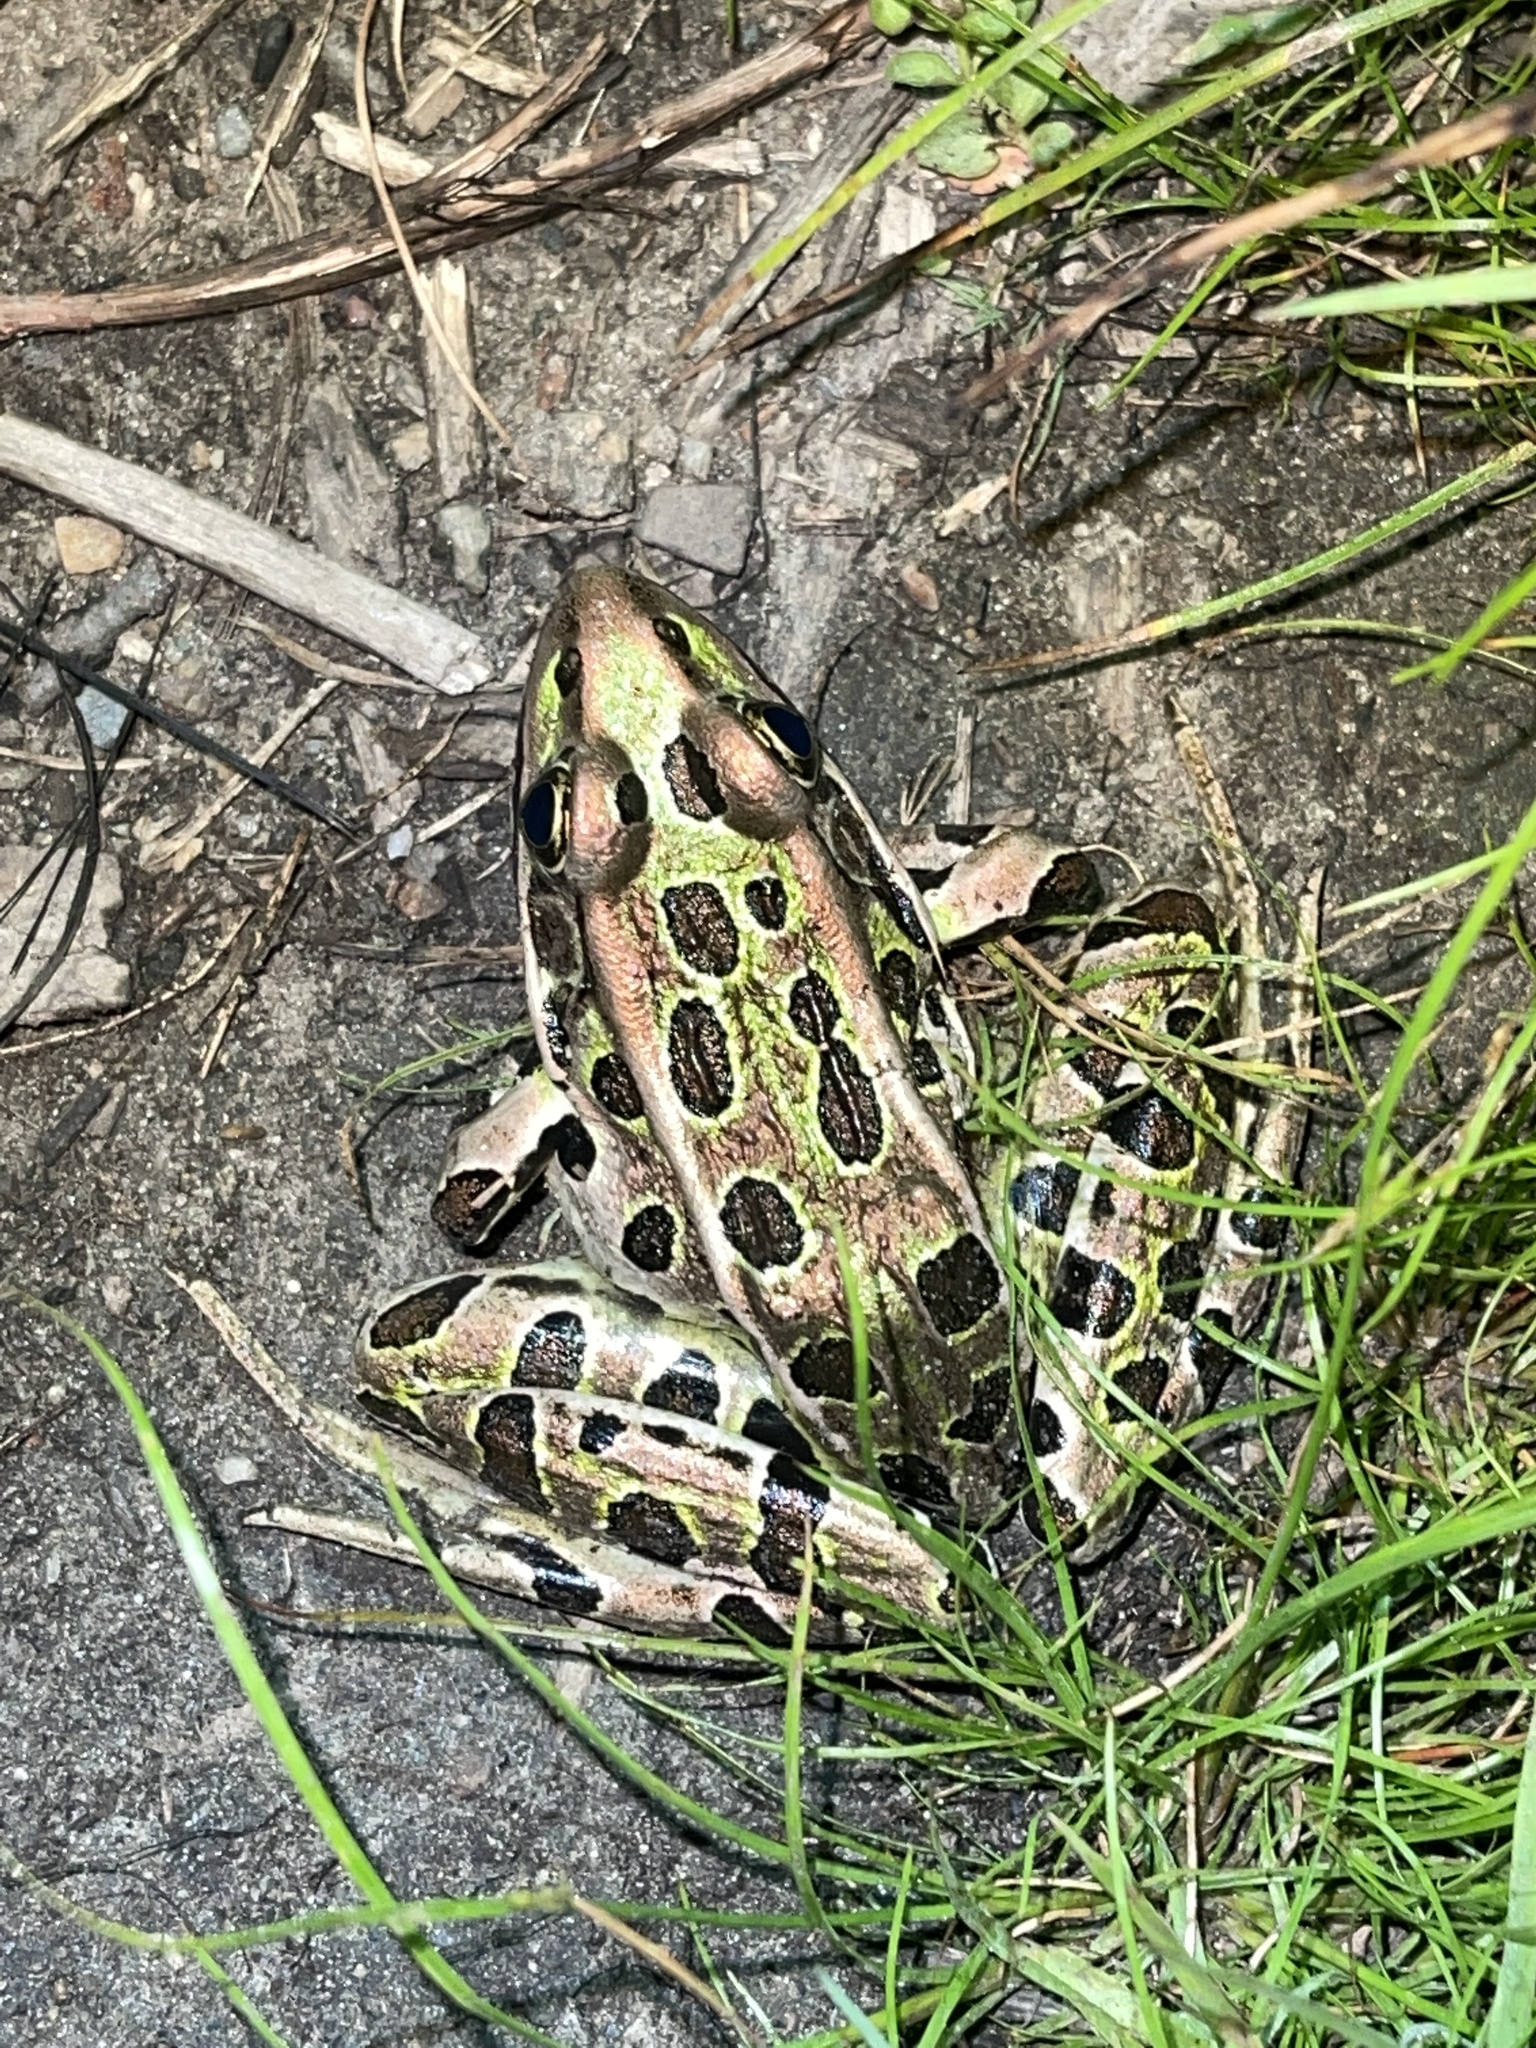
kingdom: Animalia
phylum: Chordata
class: Amphibia
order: Anura
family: Ranidae
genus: Lithobates
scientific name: Lithobates pipiens
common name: Northern leopard frog
